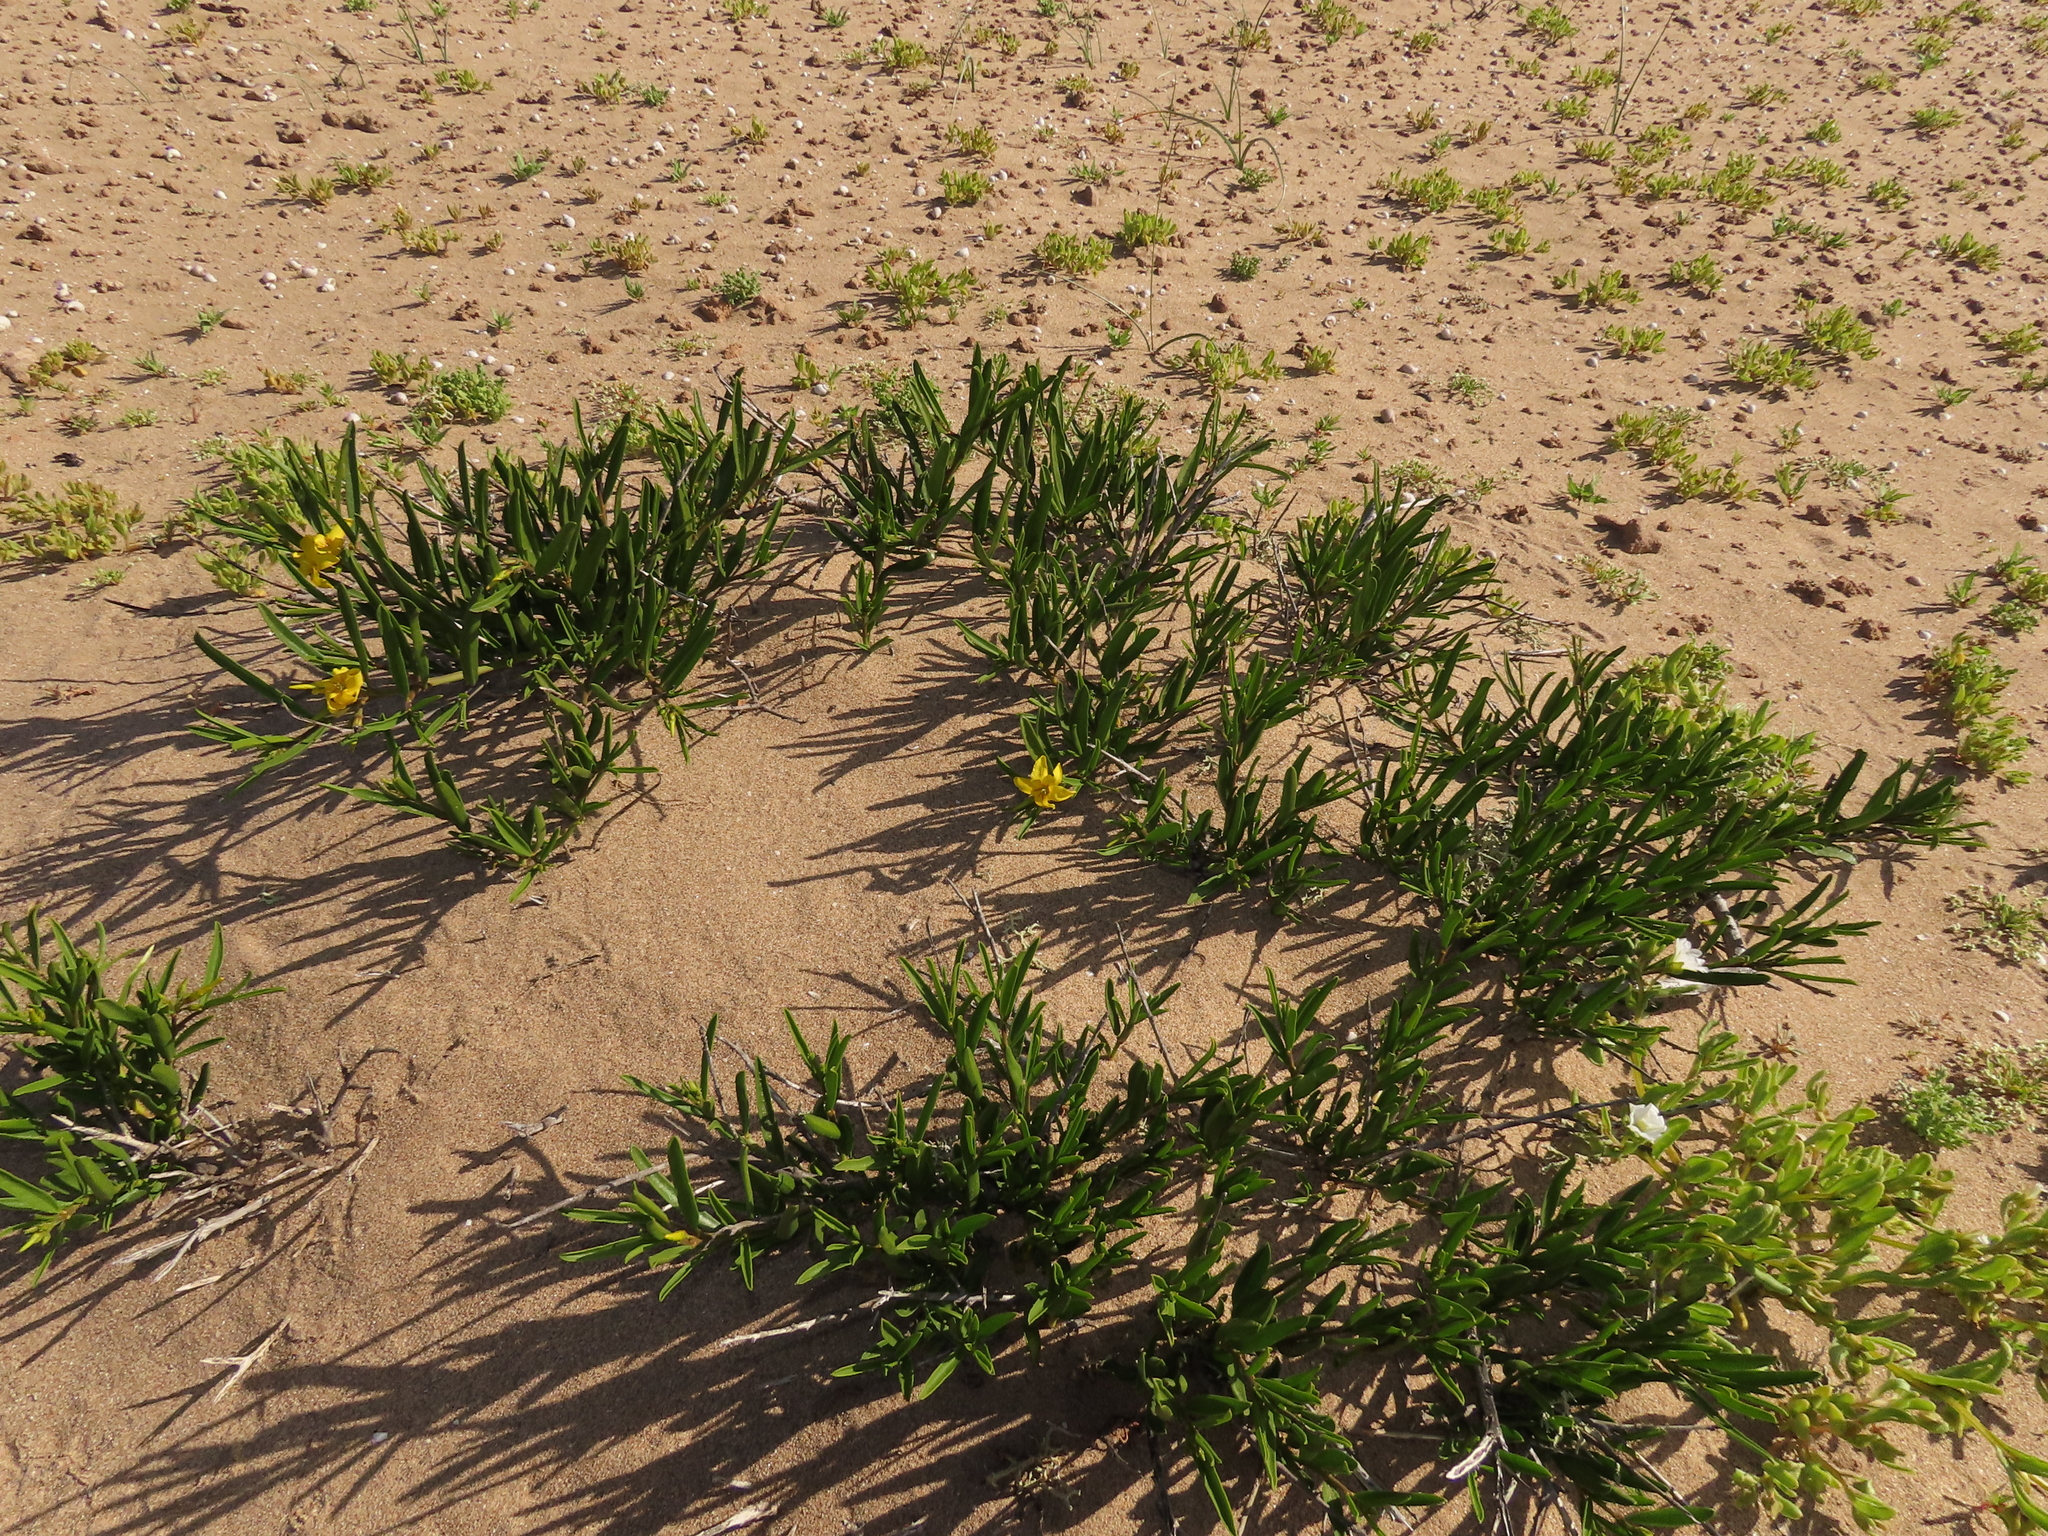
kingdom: Plantae
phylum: Tracheophyta
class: Magnoliopsida
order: Gentianales
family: Apocynaceae
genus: Skytanthus
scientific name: Skytanthus acutus
